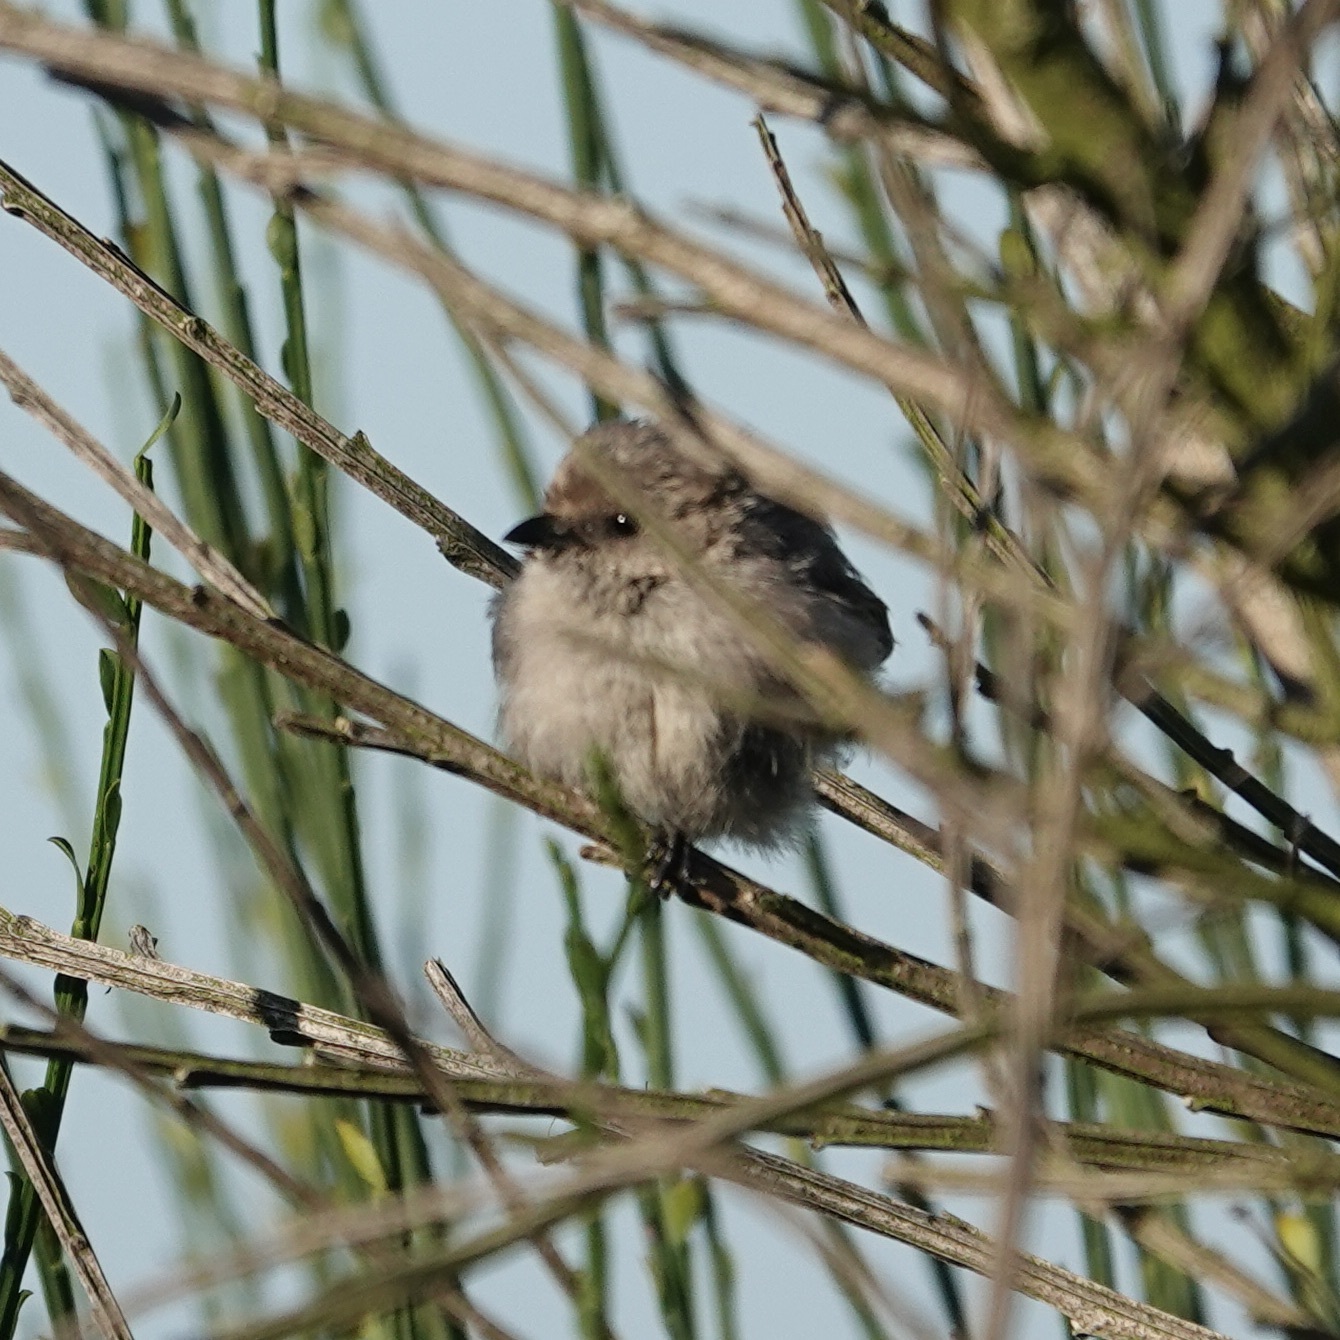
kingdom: Animalia
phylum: Chordata
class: Aves
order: Passeriformes
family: Aegithalidae
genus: Psaltriparus
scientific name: Psaltriparus minimus
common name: American bushtit
